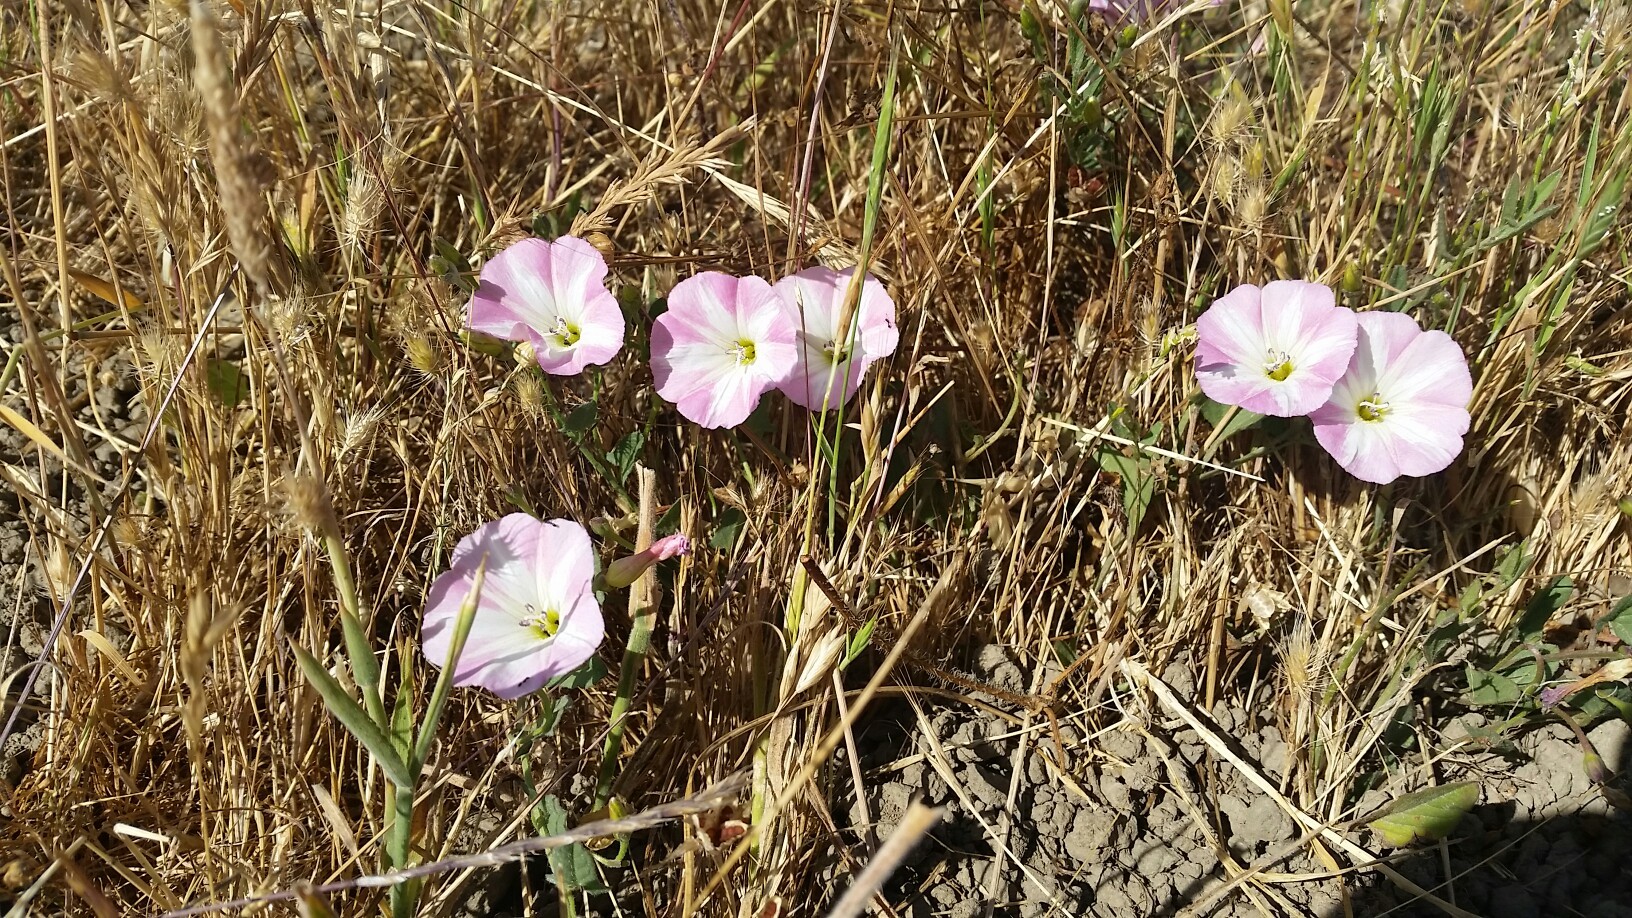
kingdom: Plantae
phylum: Tracheophyta
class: Magnoliopsida
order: Solanales
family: Convolvulaceae
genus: Convolvulus
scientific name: Convolvulus arvensis
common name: Field bindweed
